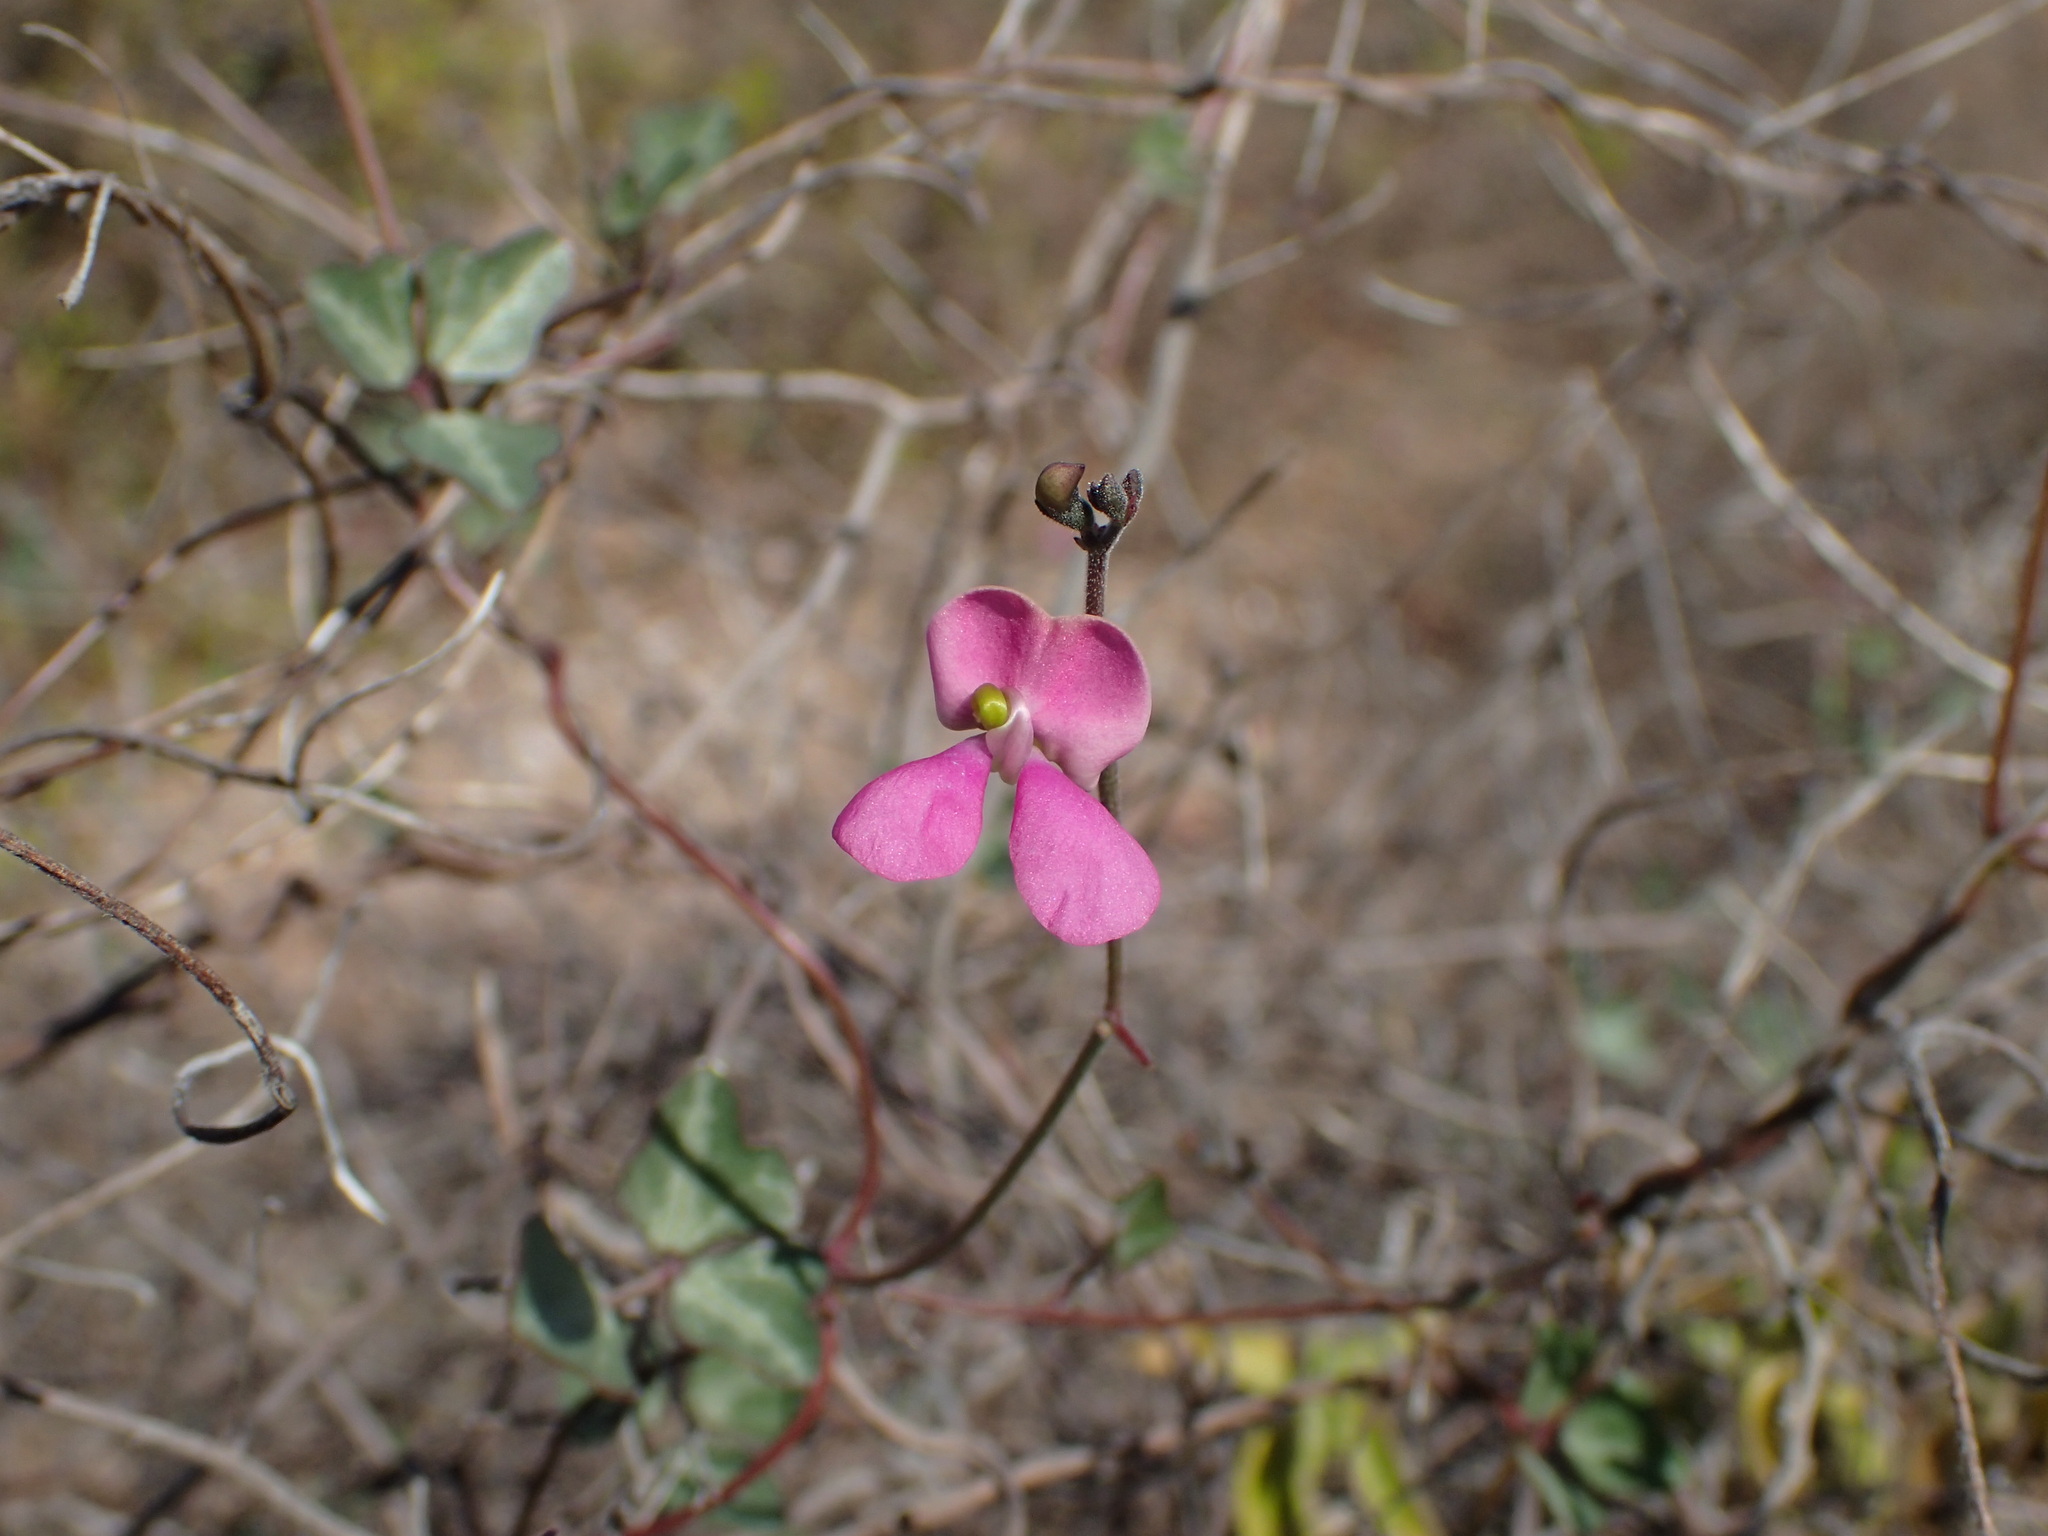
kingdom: Plantae
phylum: Tracheophyta
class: Magnoliopsida
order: Fabales
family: Fabaceae
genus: Phaseolus
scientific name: Phaseolus filiformis
